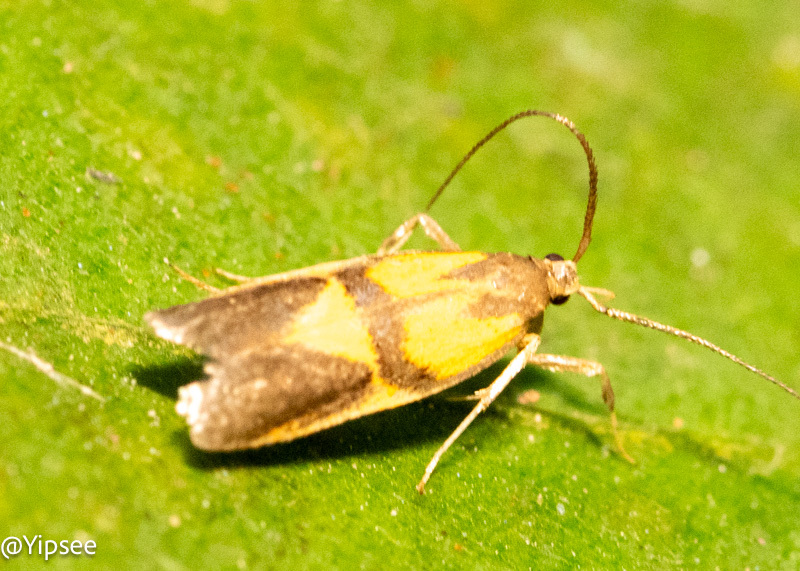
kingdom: Animalia
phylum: Arthropoda
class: Insecta
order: Lepidoptera
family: Lecithoceridae
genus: Tisis
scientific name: Tisis helioclina
